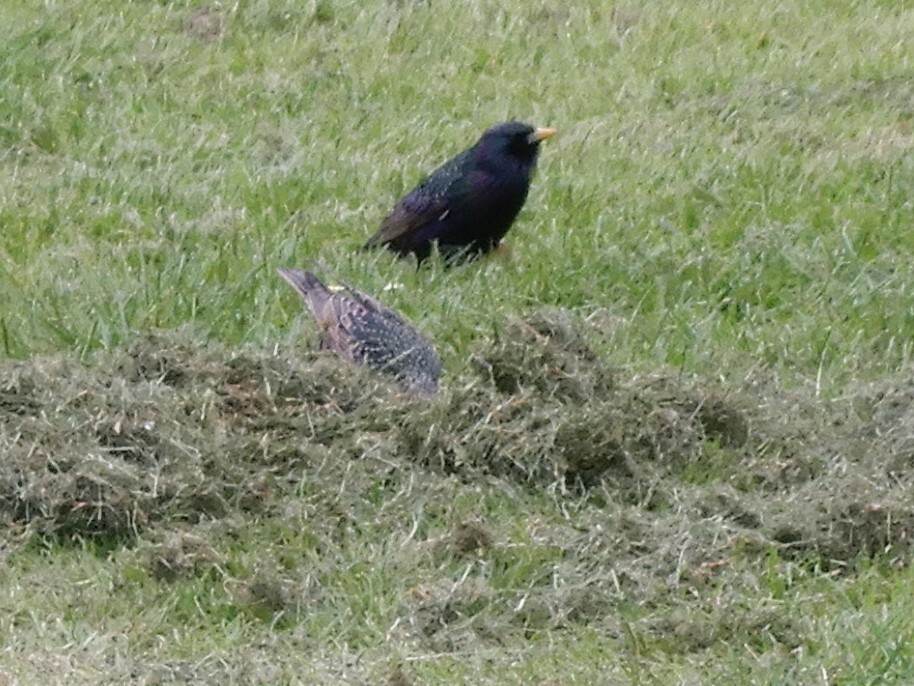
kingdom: Animalia
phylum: Chordata
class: Aves
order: Passeriformes
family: Sturnidae
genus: Sturnus
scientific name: Sturnus vulgaris
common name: Common starling
